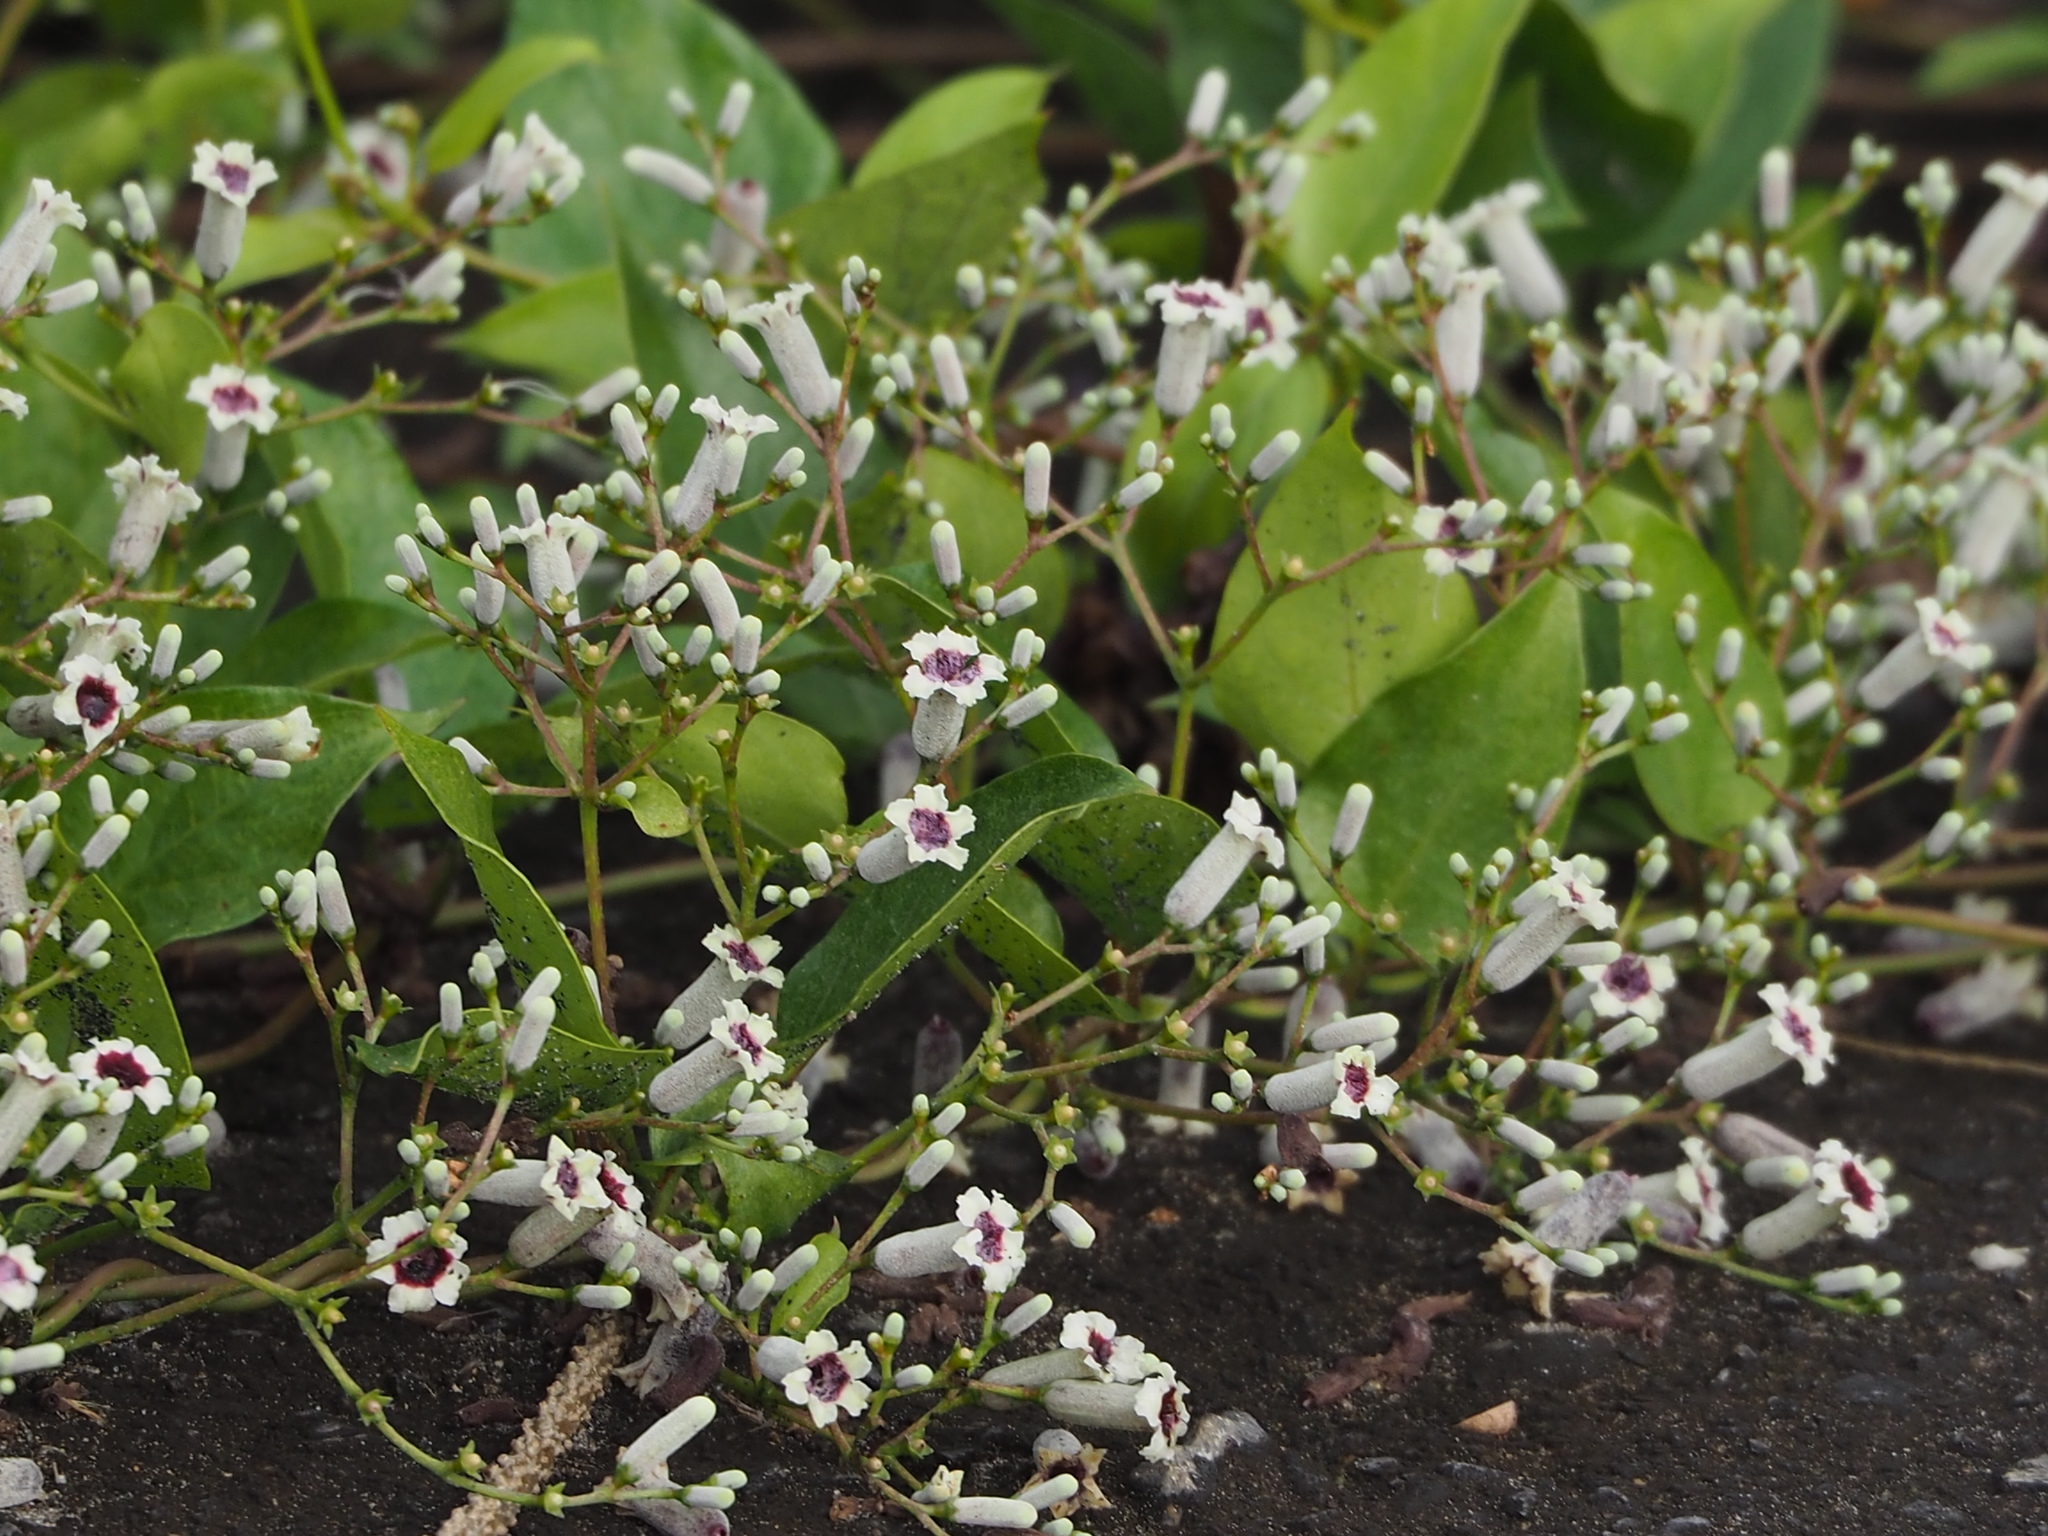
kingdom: Plantae
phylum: Tracheophyta
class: Magnoliopsida
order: Gentianales
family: Rubiaceae
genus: Paederia
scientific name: Paederia foetida
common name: Stinkvine
